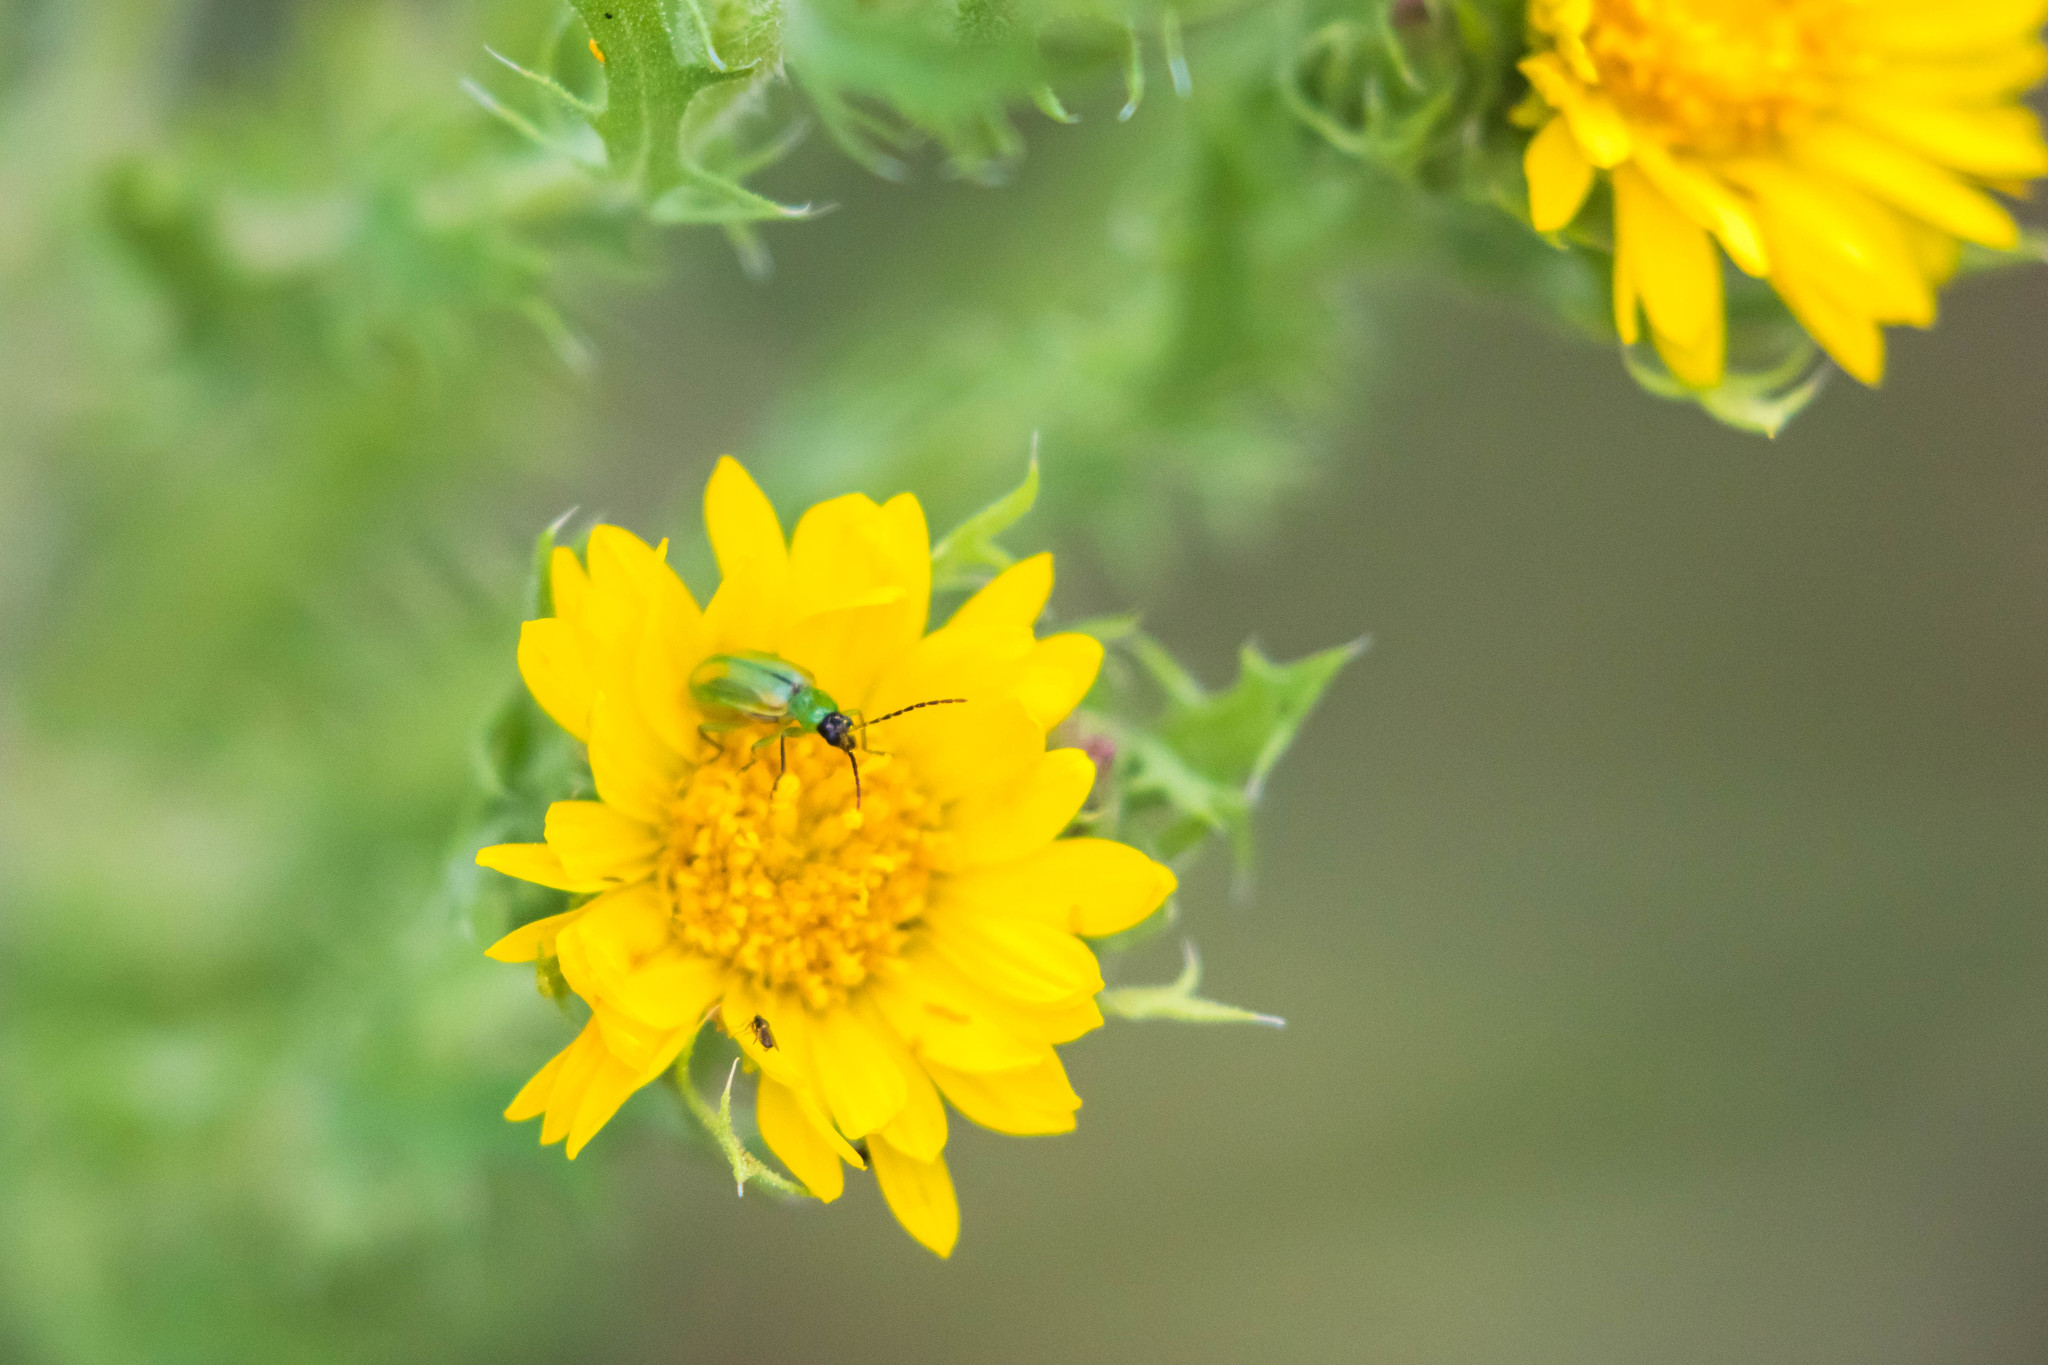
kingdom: Animalia
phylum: Arthropoda
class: Insecta
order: Coleoptera
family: Chrysomelidae
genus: Diabrotica
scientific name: Diabrotica longicornis
